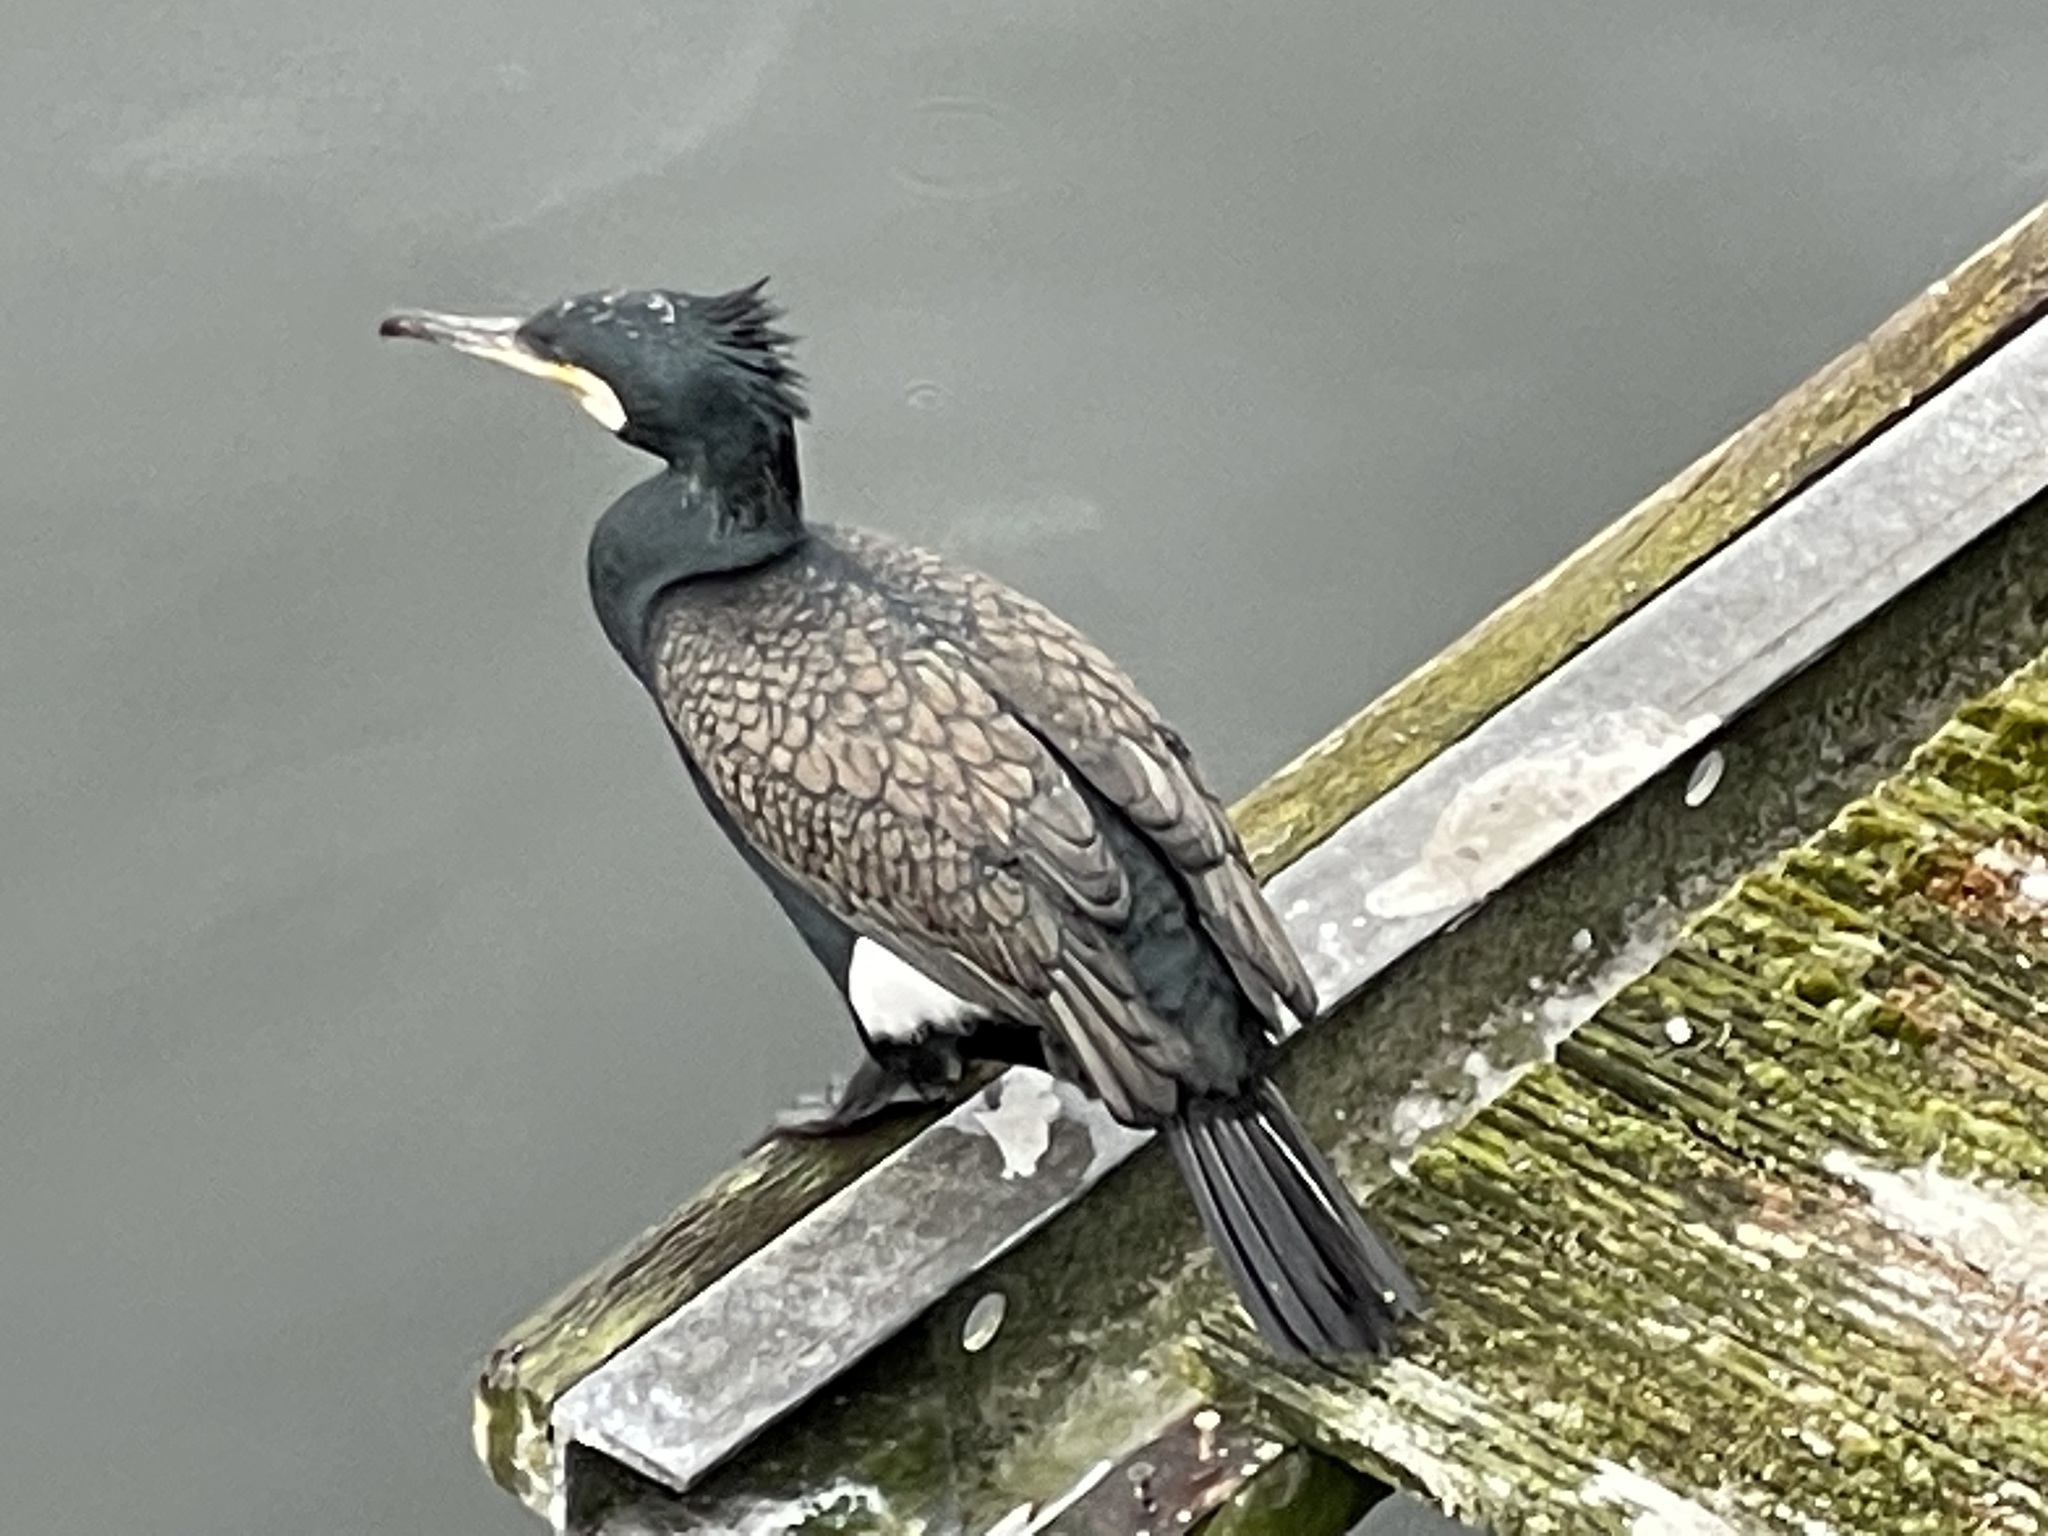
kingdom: Animalia
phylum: Chordata
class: Aves
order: Suliformes
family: Phalacrocoracidae
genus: Phalacrocorax
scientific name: Phalacrocorax carbo
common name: Great cormorant
